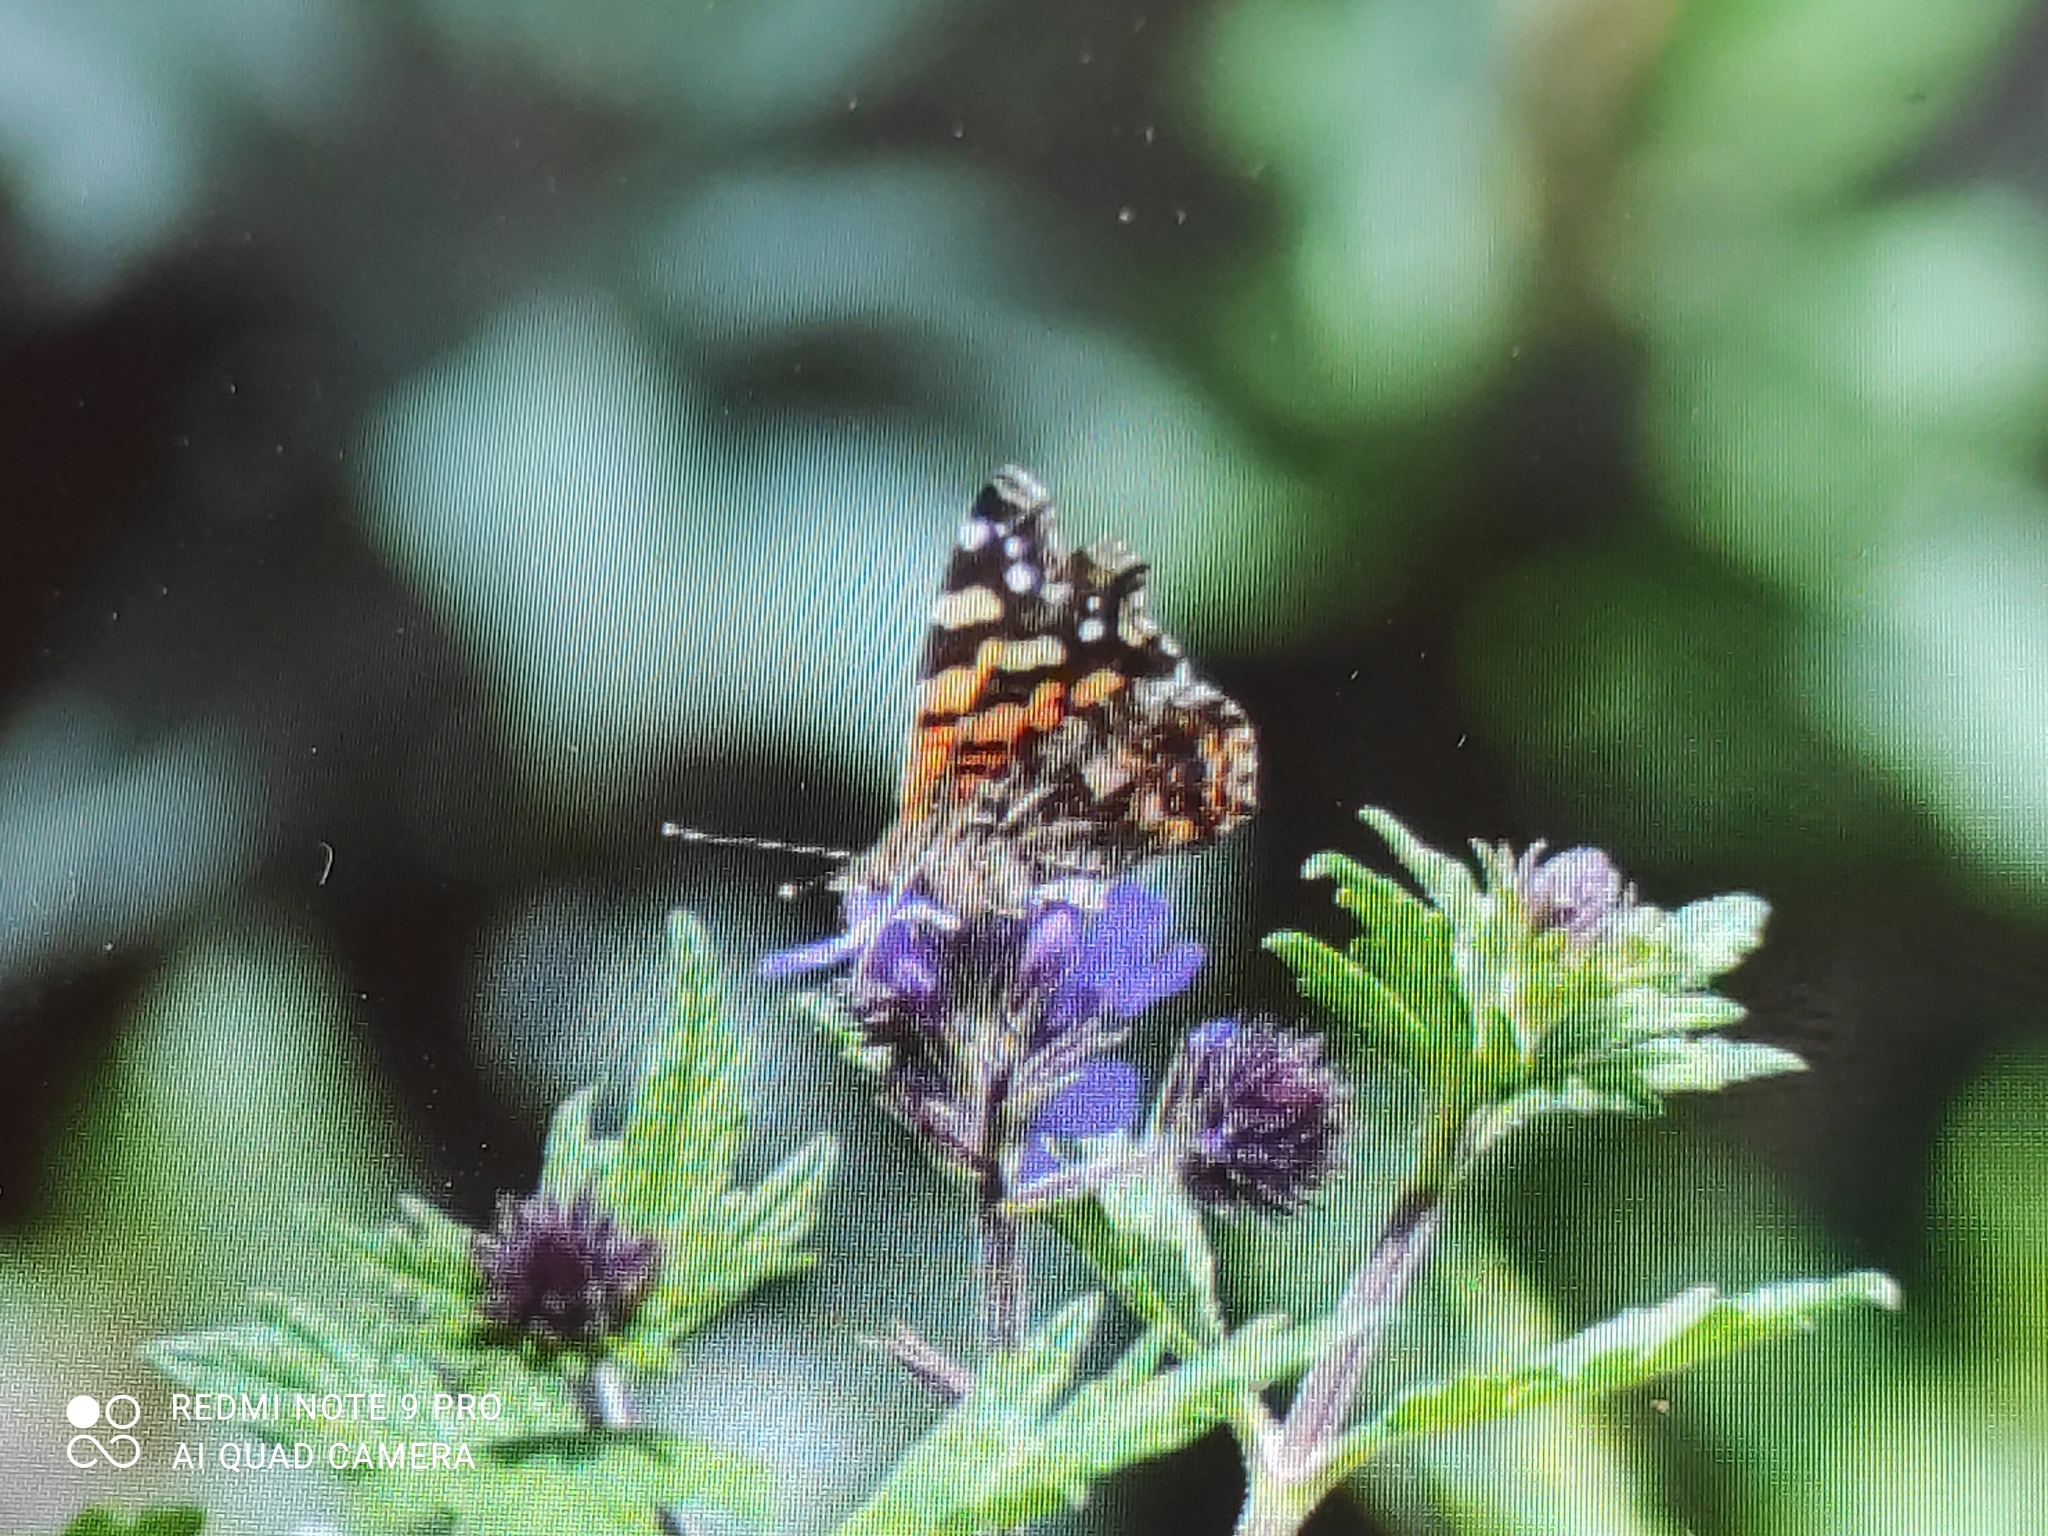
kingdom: Animalia
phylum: Arthropoda
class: Insecta
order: Lepidoptera
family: Nymphalidae
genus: Vanessa
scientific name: Vanessa carye
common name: Subtropical lady
